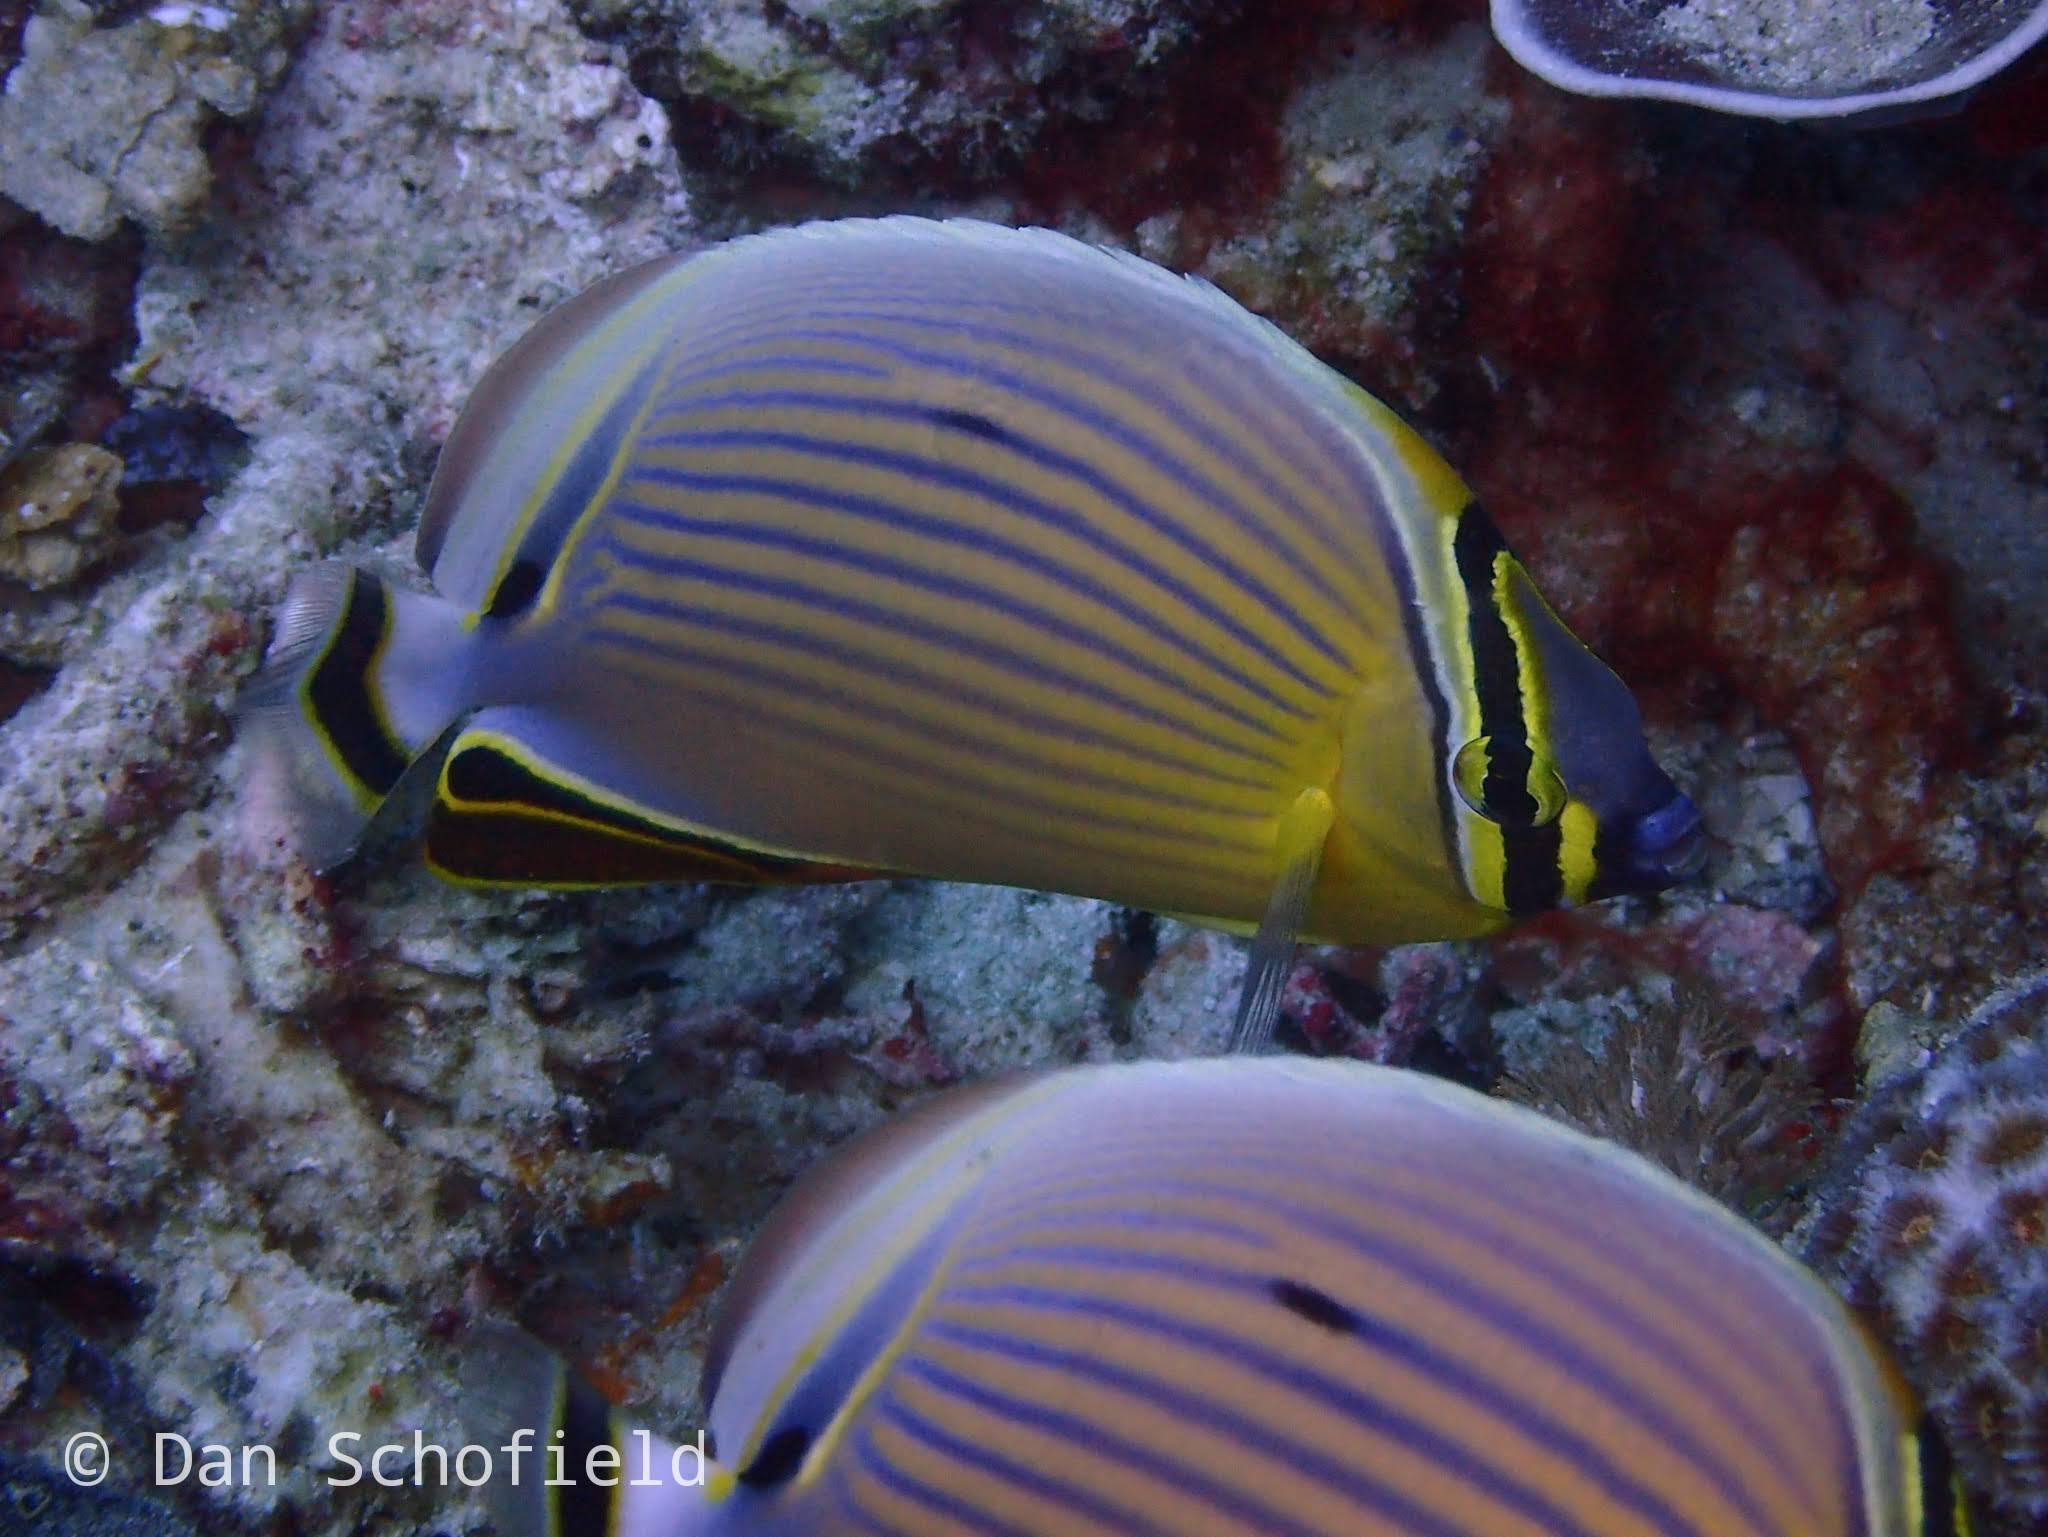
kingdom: Animalia
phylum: Chordata
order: Perciformes
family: Chaetodontidae
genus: Chaetodon
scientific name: Chaetodon lunulatus
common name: Redfin butterflyfish
